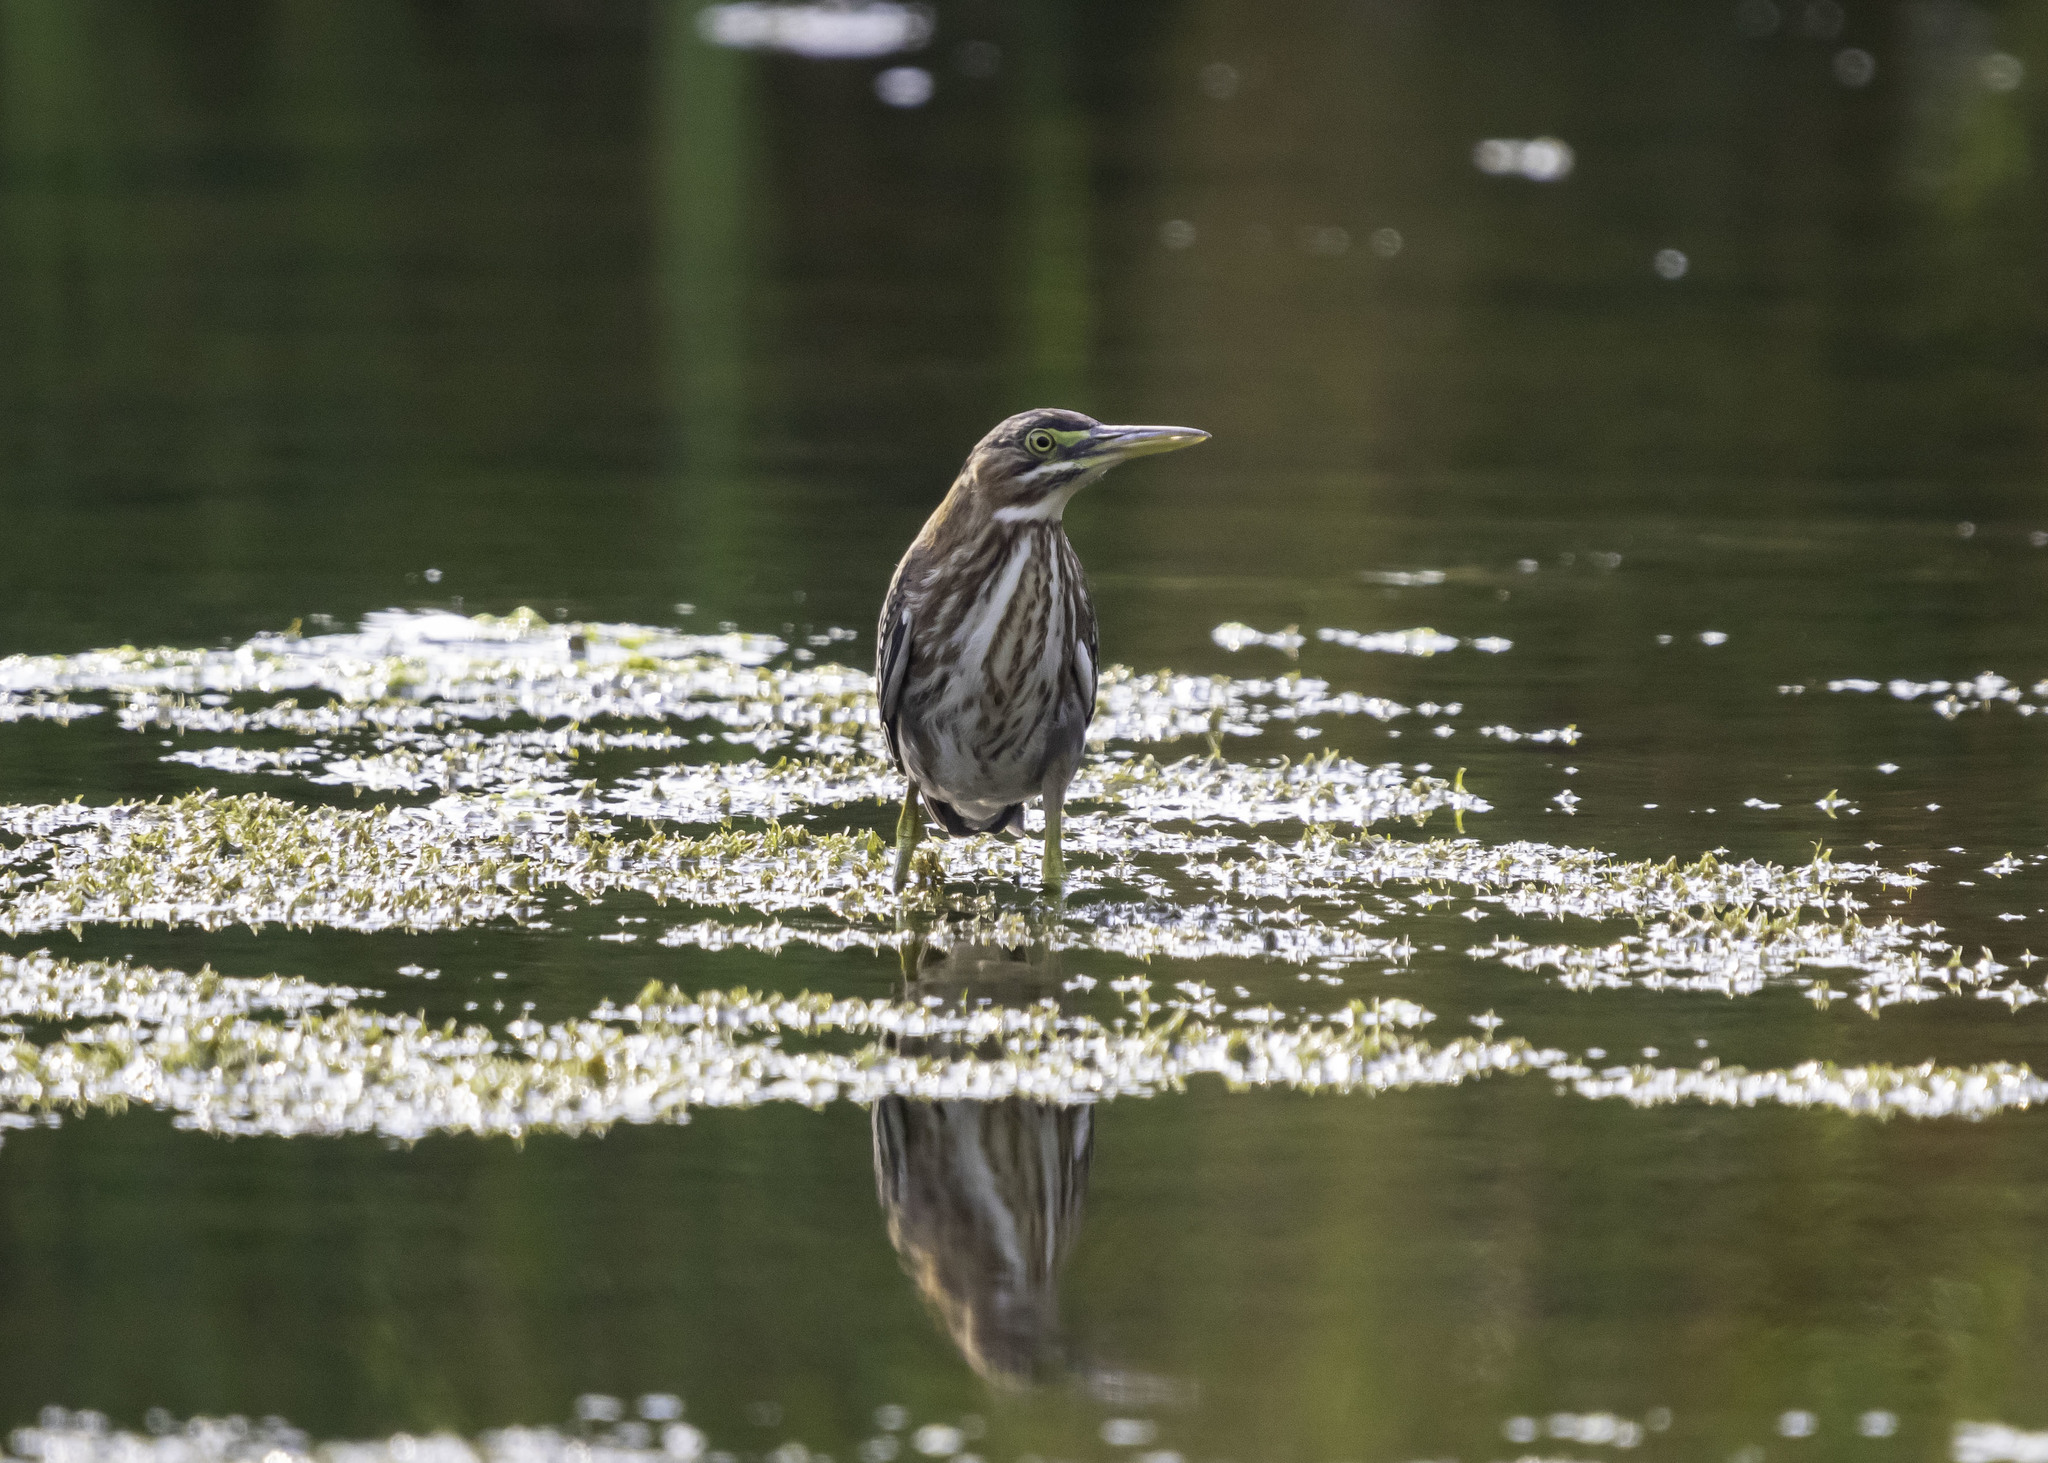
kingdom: Animalia
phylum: Chordata
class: Aves
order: Pelecaniformes
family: Ardeidae
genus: Butorides
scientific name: Butorides virescens
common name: Green heron
